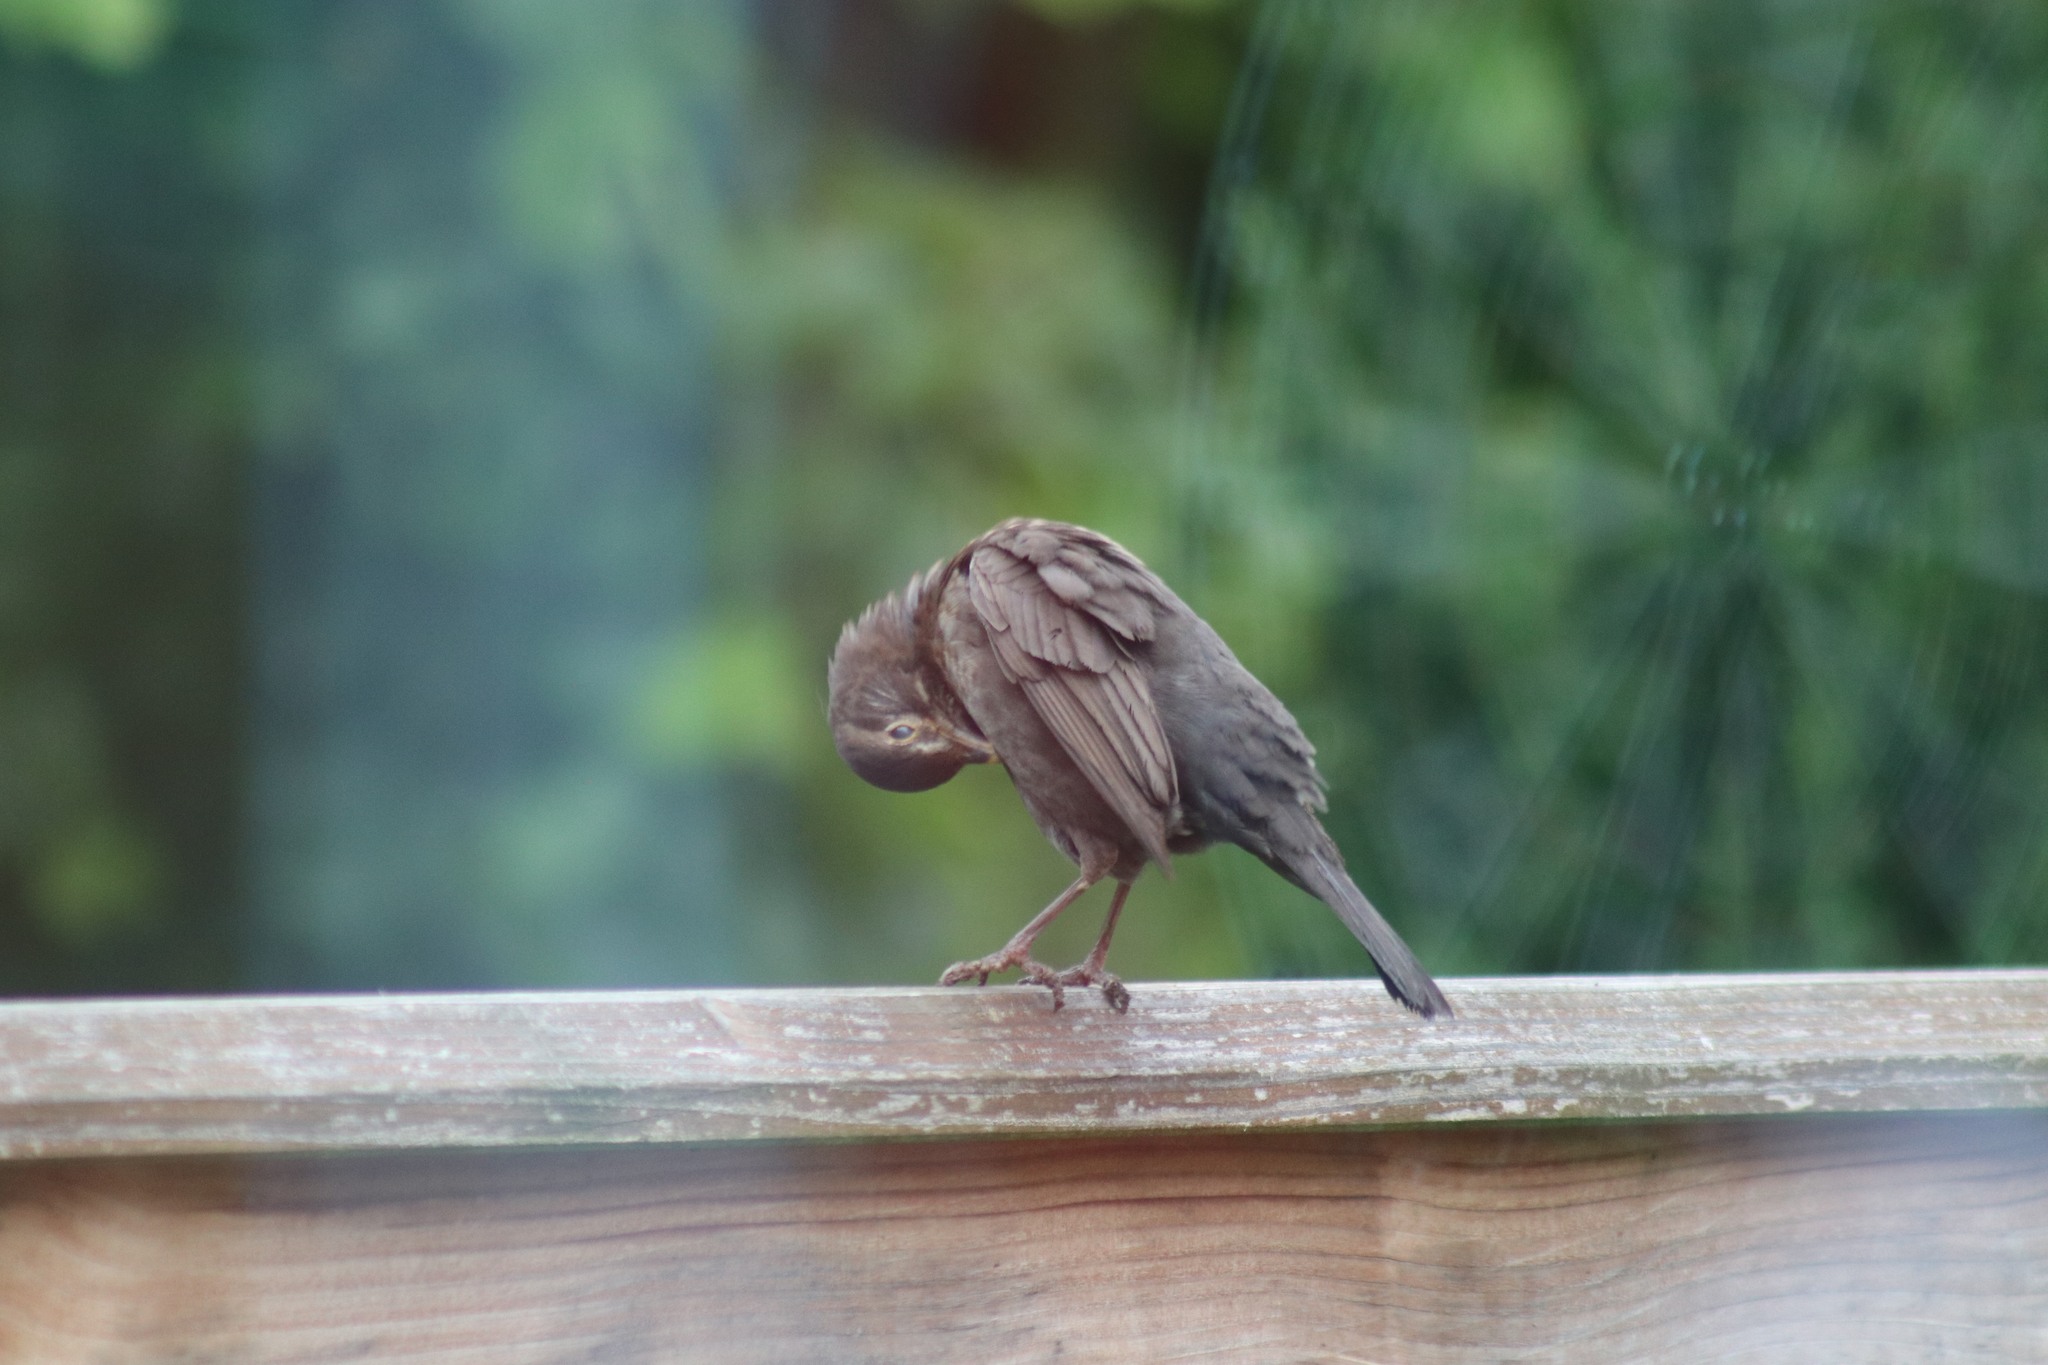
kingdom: Animalia
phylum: Chordata
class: Aves
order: Passeriformes
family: Turdidae
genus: Turdus
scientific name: Turdus merula
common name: Common blackbird
